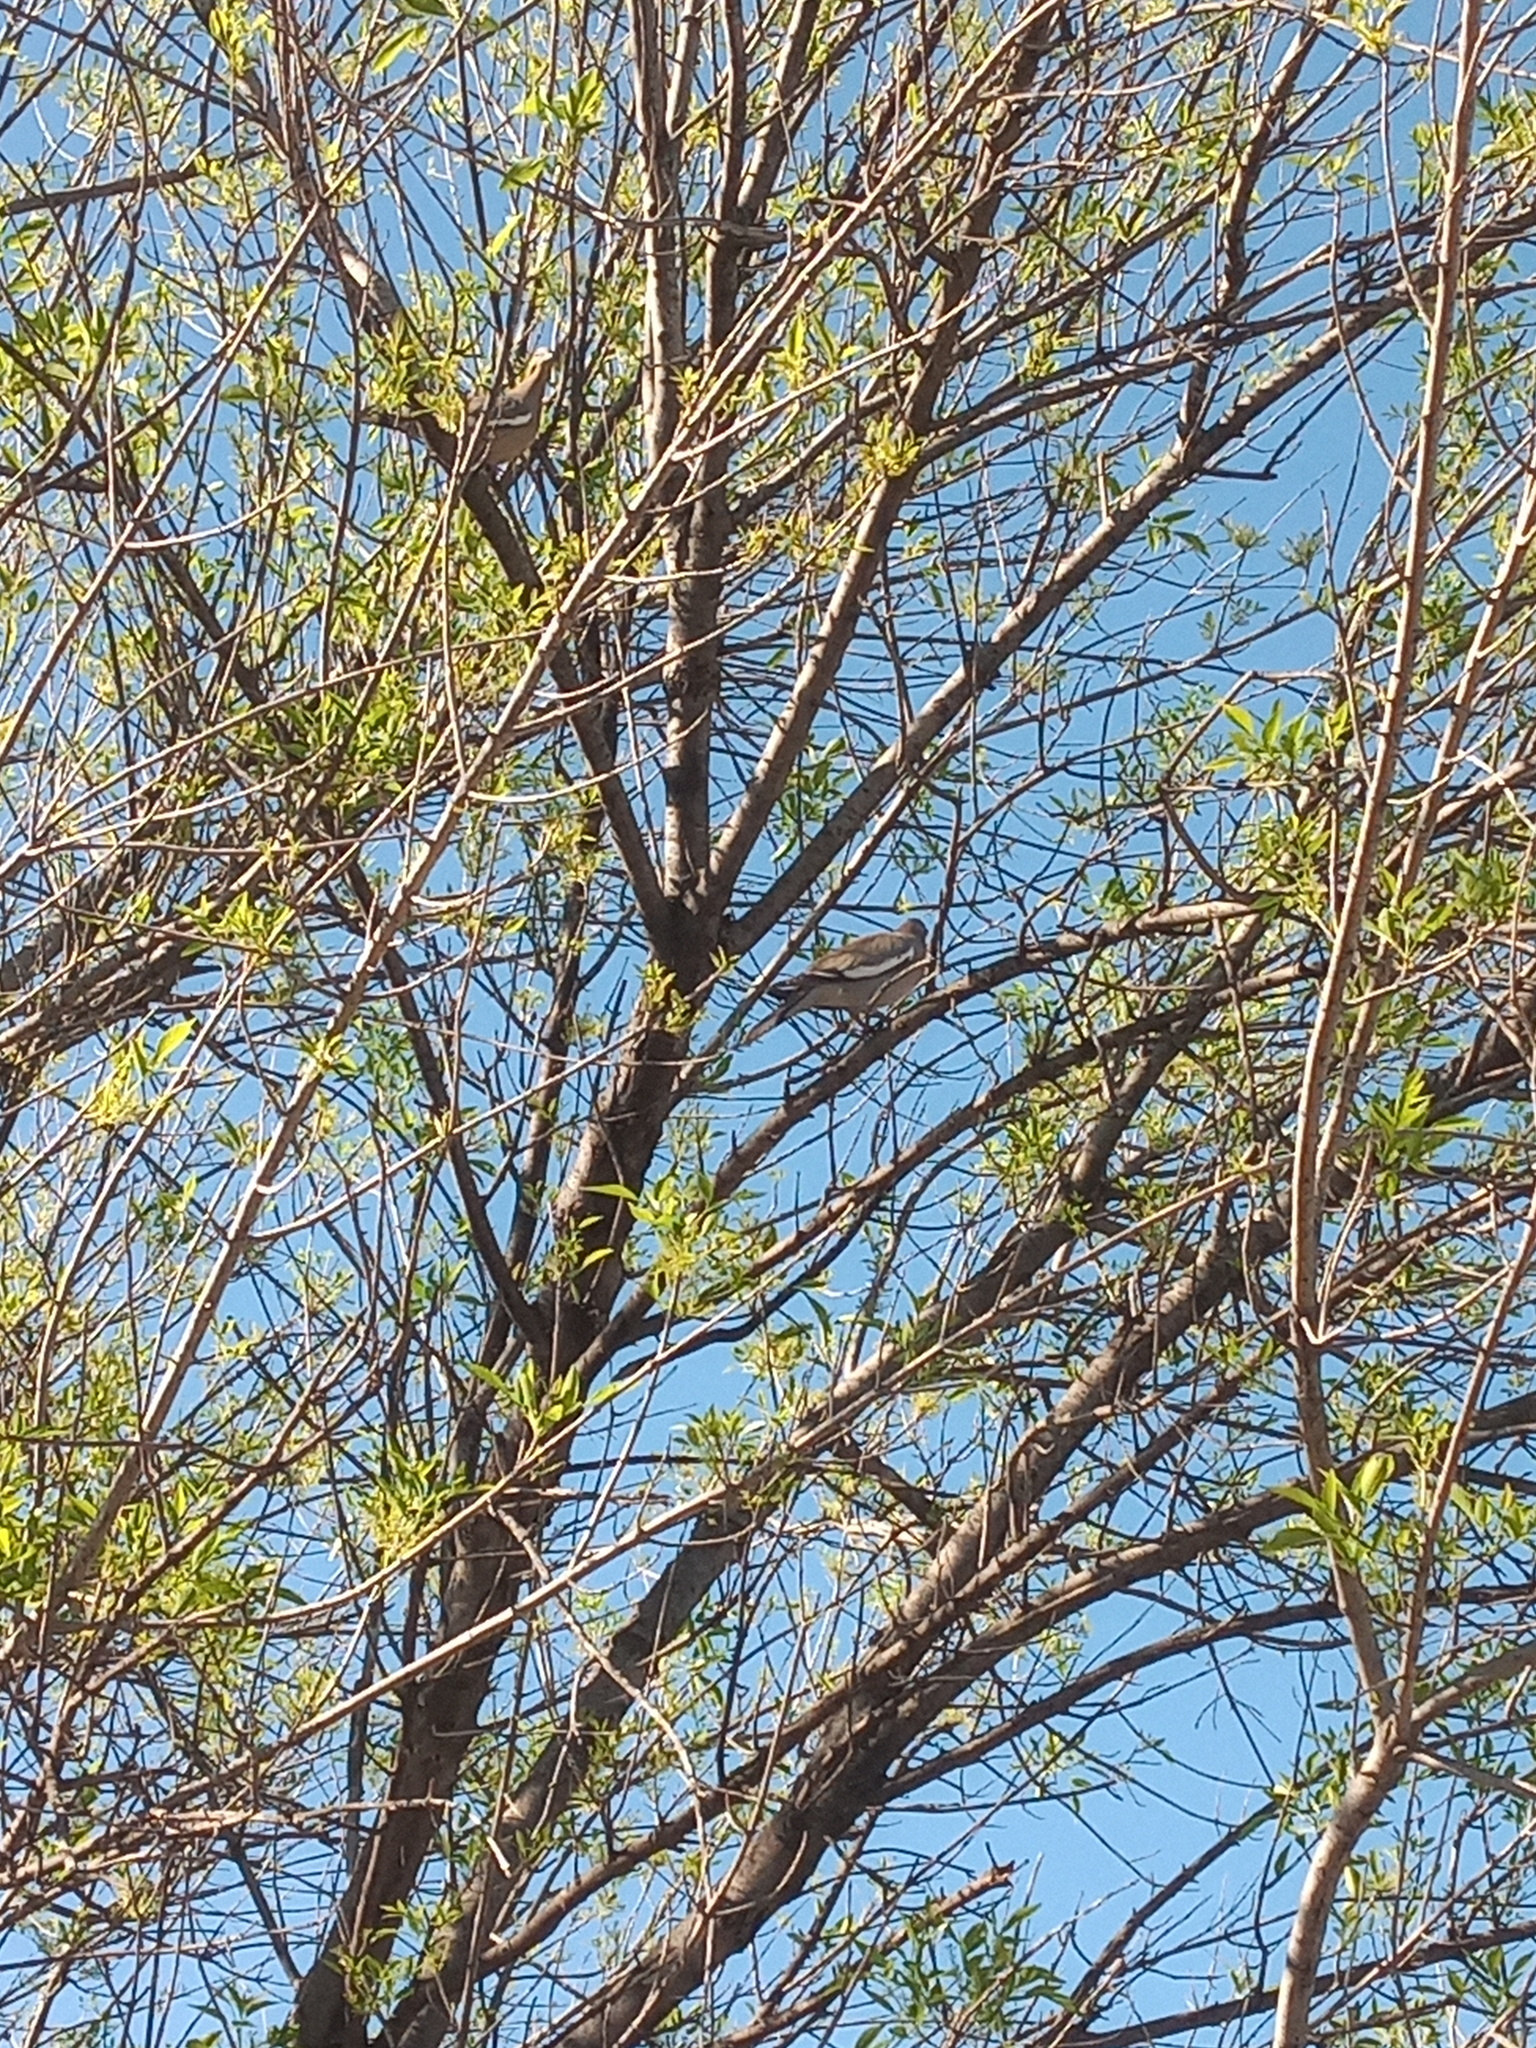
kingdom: Animalia
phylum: Chordata
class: Aves
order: Columbiformes
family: Columbidae
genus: Zenaida
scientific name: Zenaida asiatica
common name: White-winged dove
